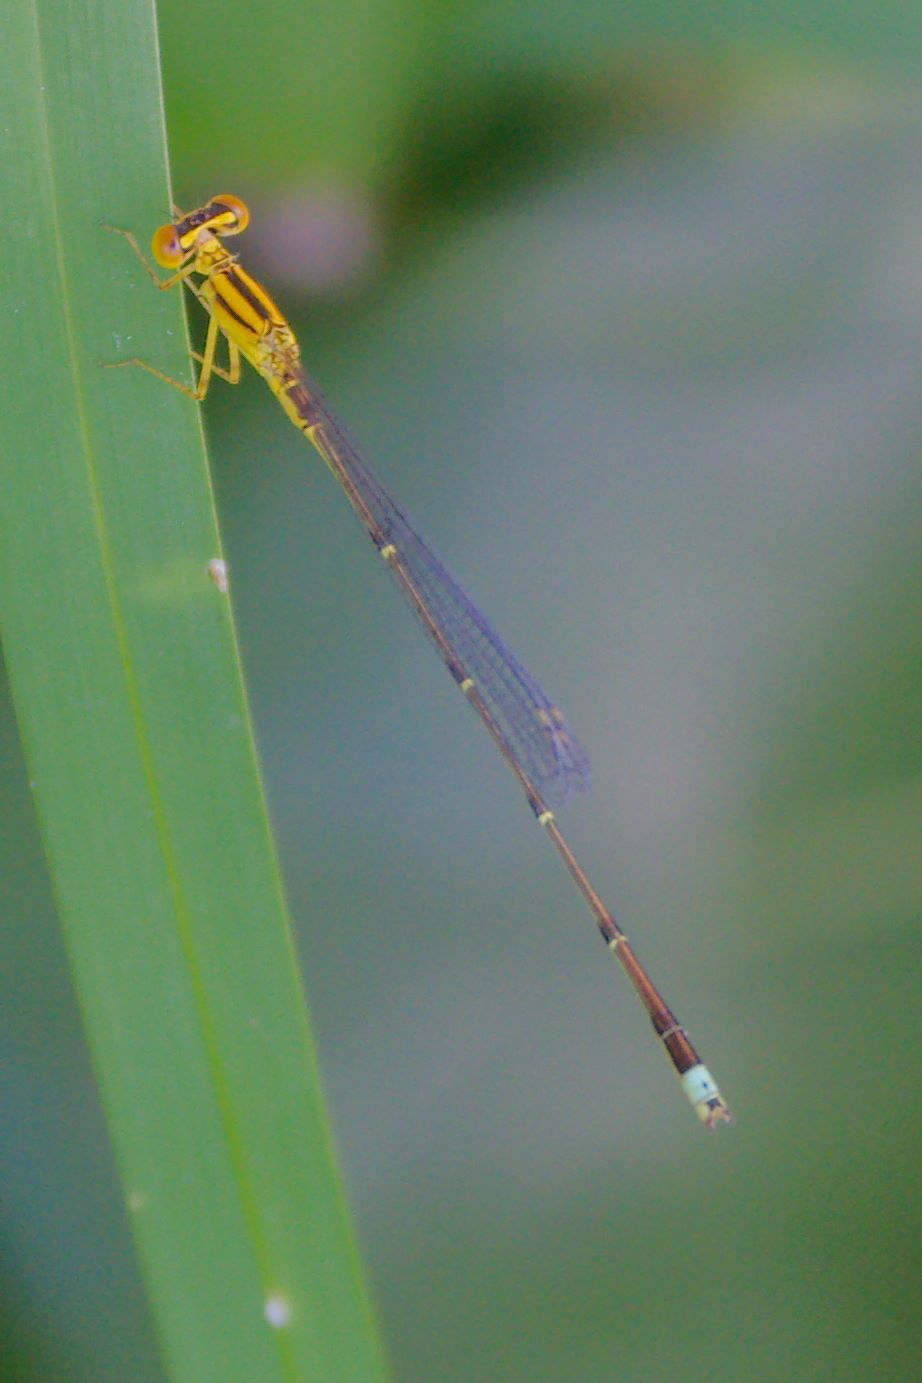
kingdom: Animalia
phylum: Arthropoda
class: Insecta
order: Odonata
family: Coenagrionidae
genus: Enallagma
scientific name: Enallagma vesperum
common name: Vesper bluet
